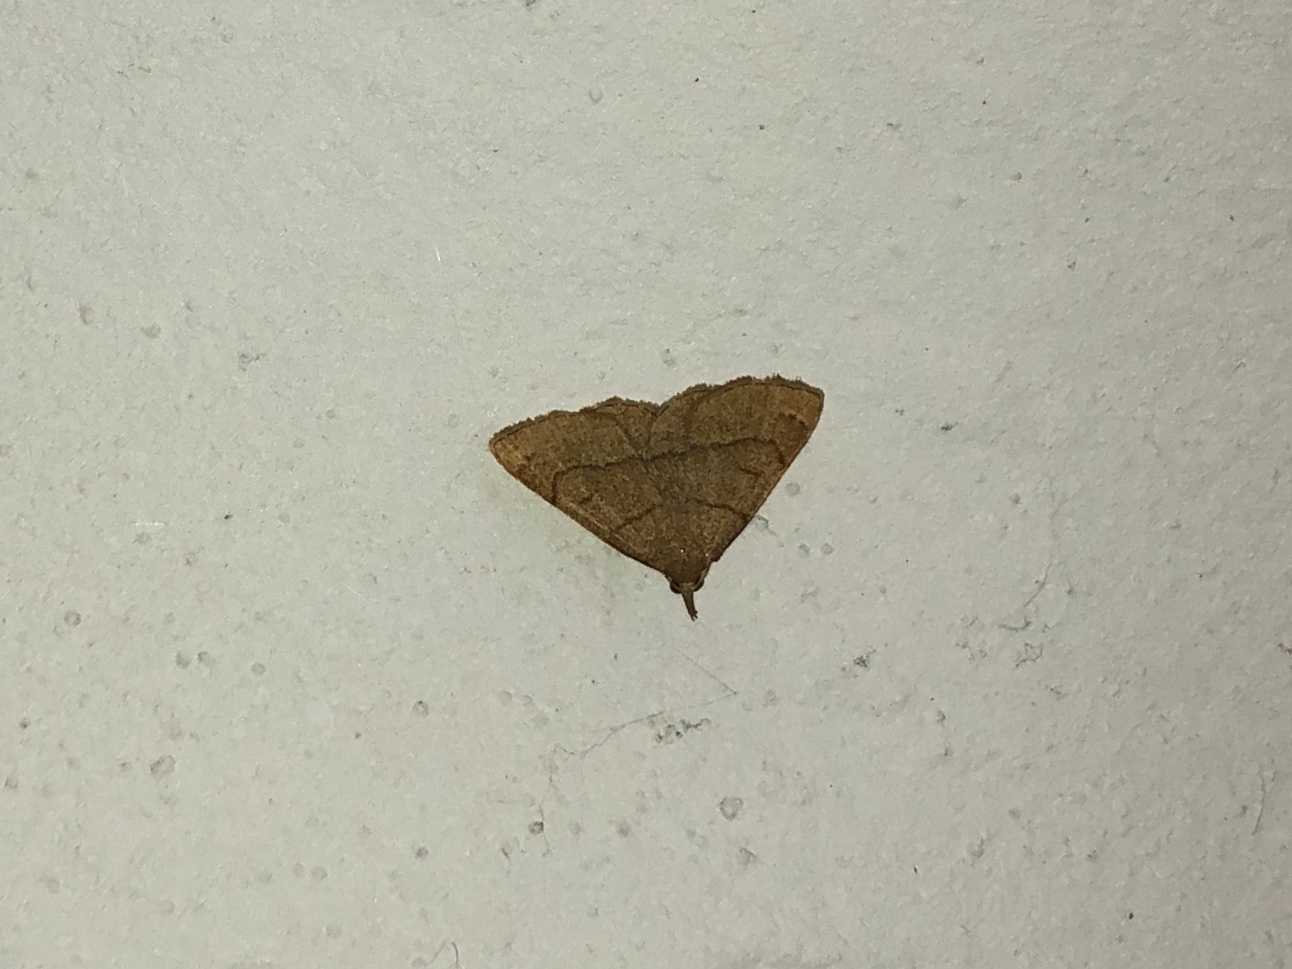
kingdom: Animalia
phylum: Arthropoda
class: Insecta
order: Lepidoptera
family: Erebidae
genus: Paracolax
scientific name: Paracolax tristalis
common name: Clay fan-foot
